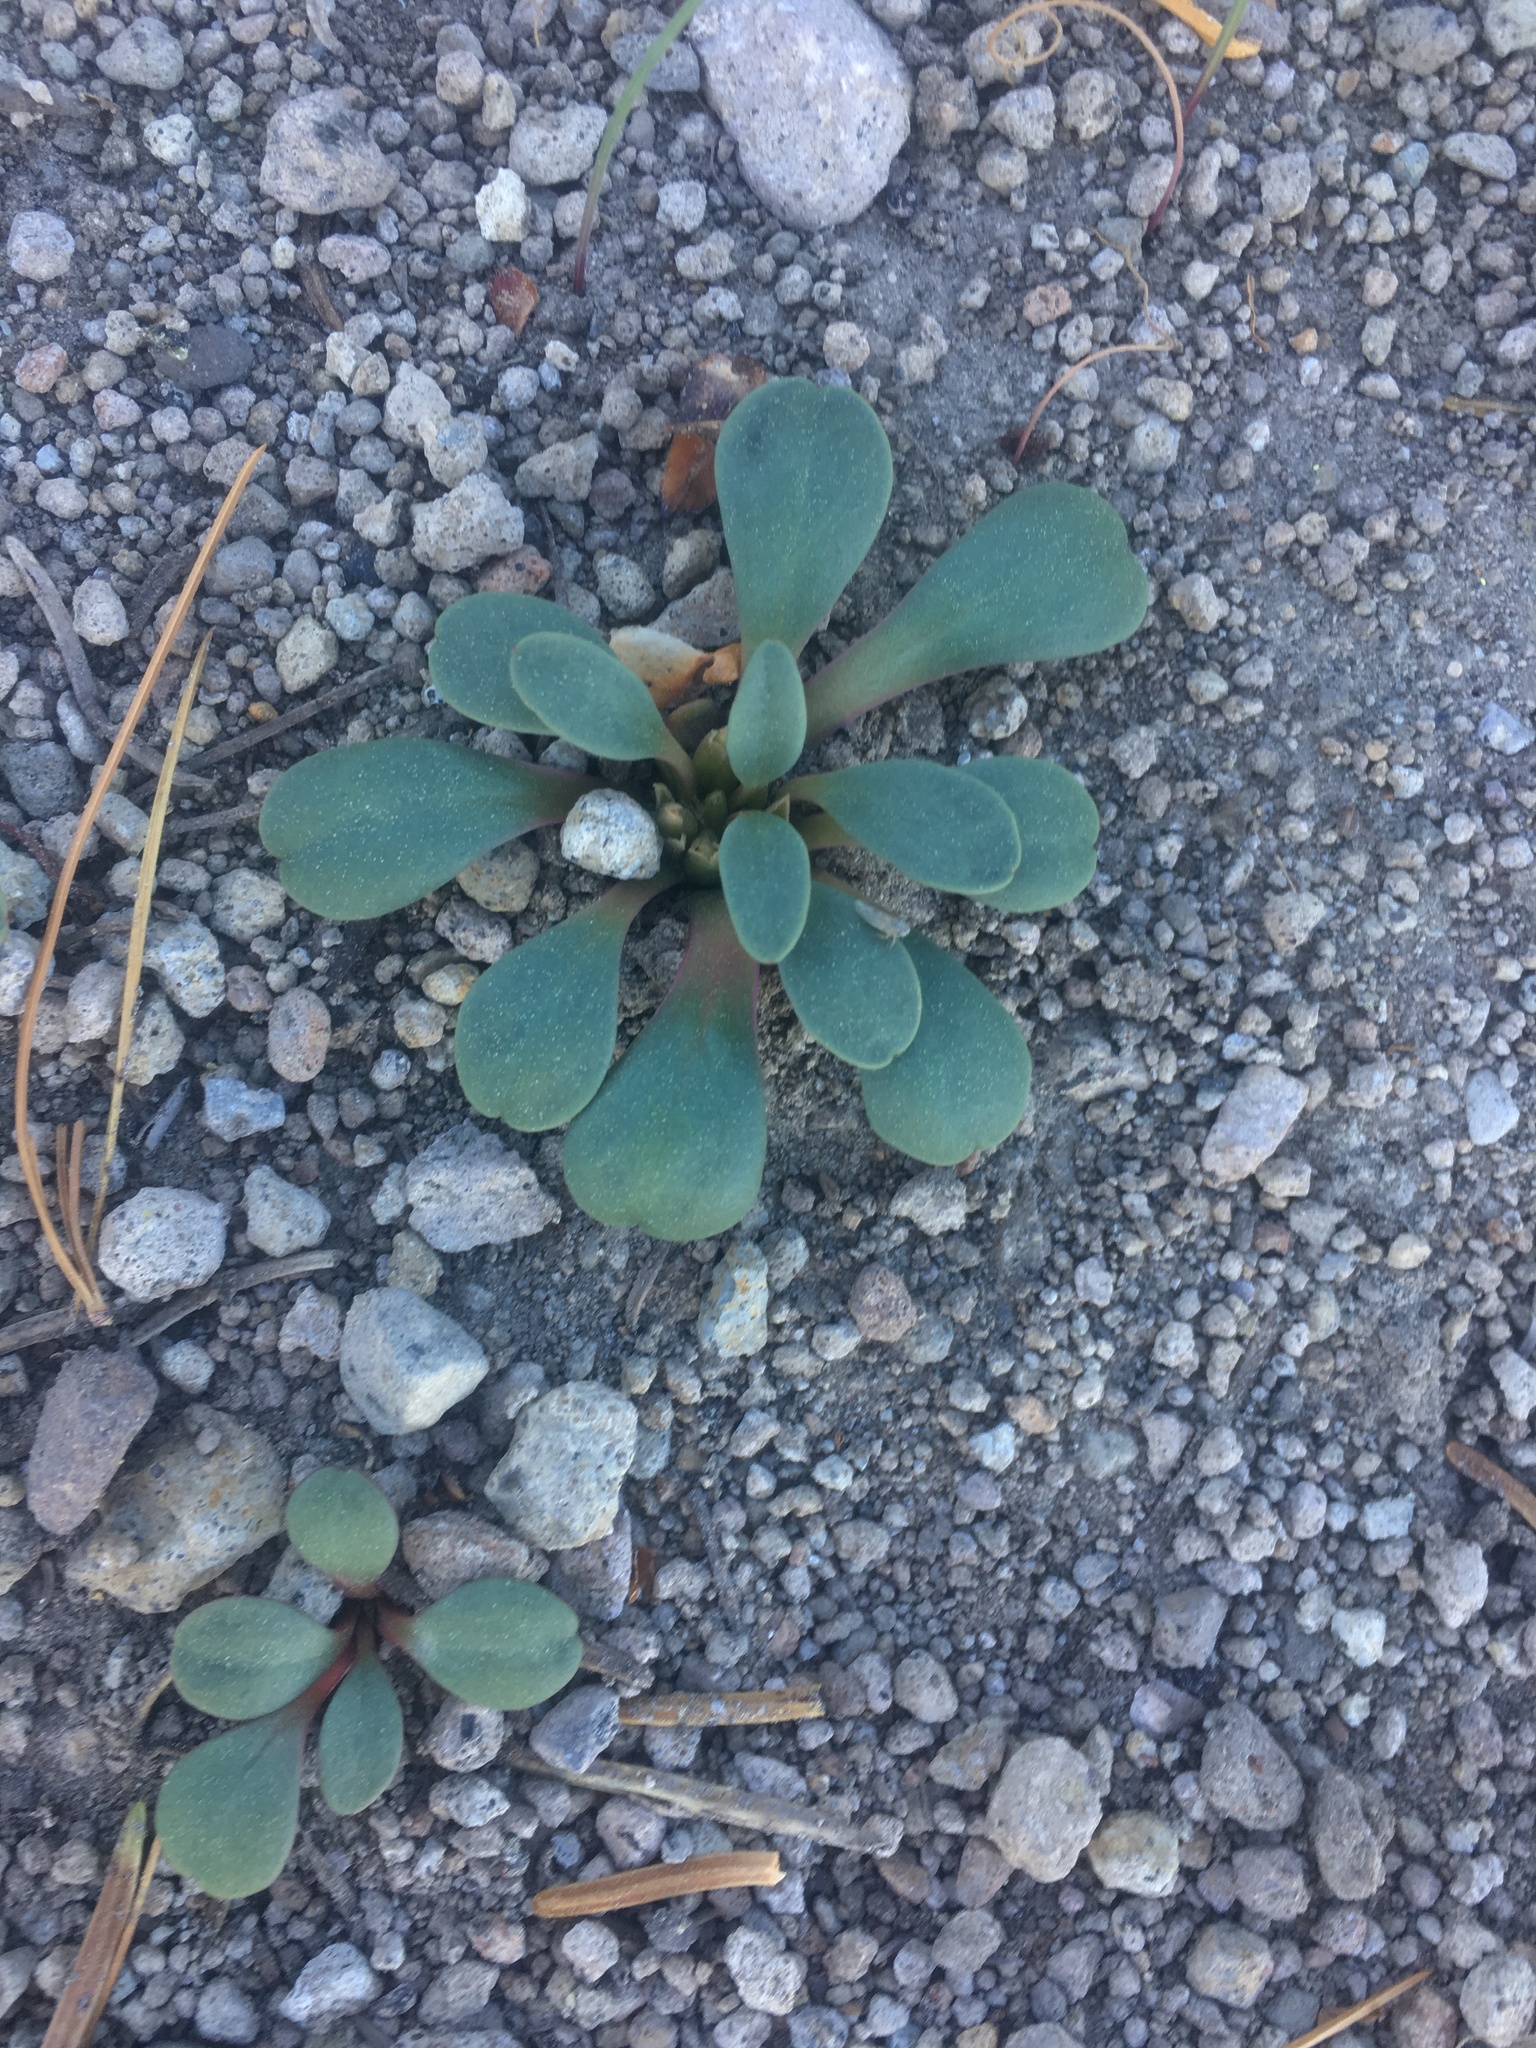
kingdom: Plantae
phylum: Tracheophyta
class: Magnoliopsida
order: Caryophyllales
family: Montiaceae
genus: Lewisia
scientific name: Lewisia kelloggii
